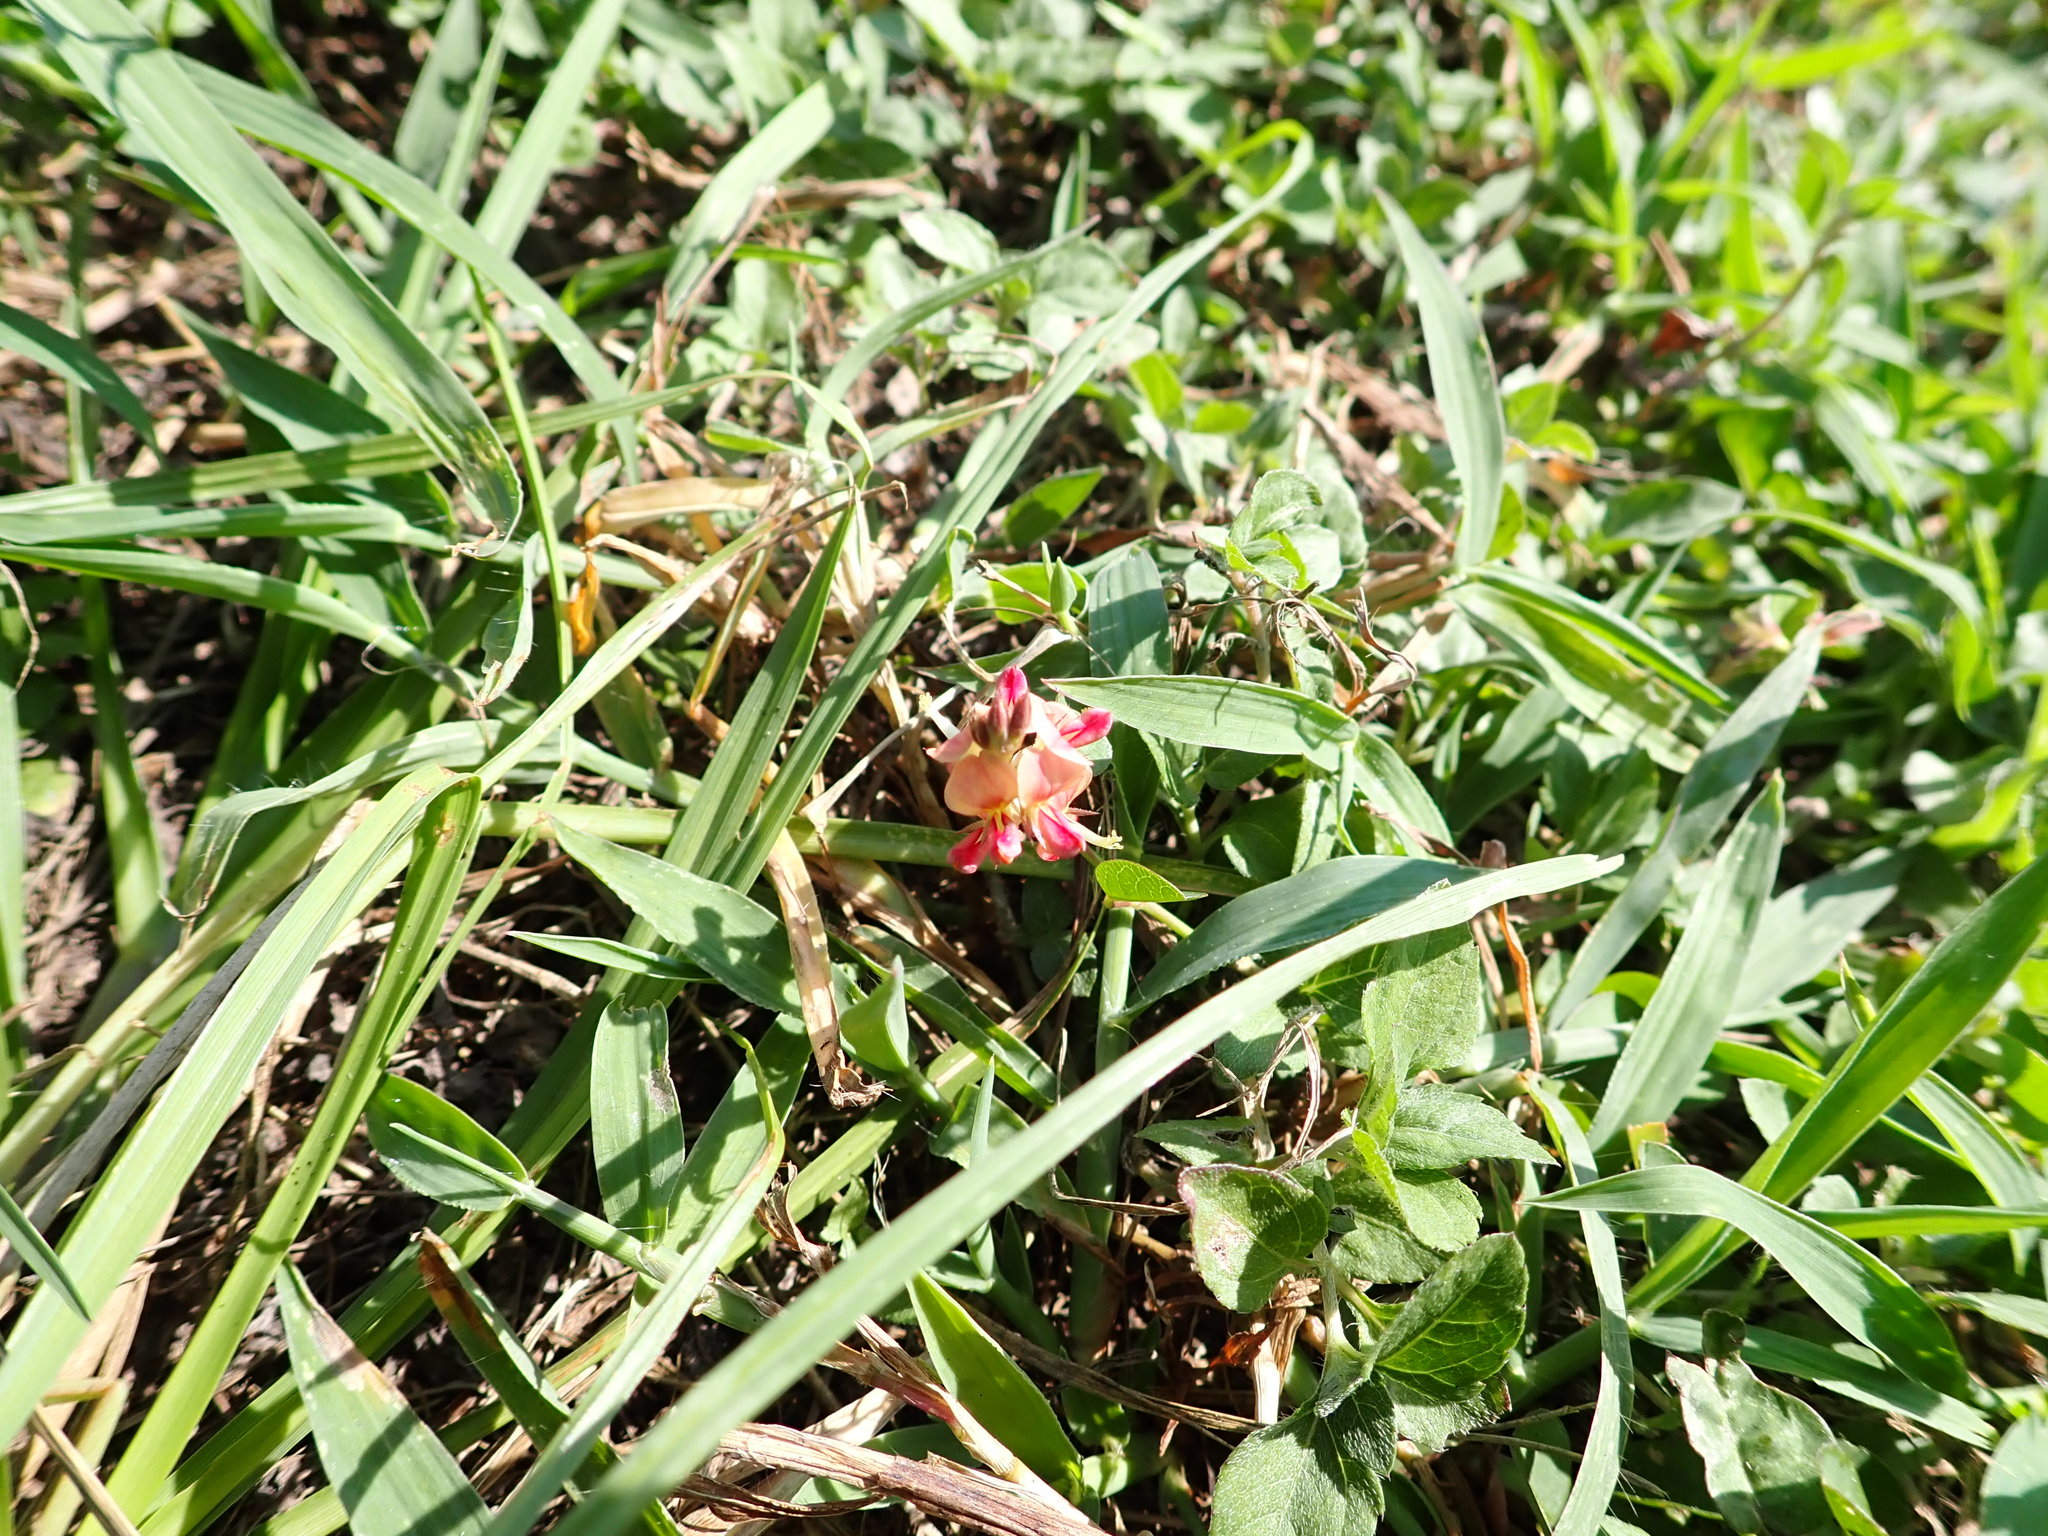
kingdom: Plantae
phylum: Tracheophyta
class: Magnoliopsida
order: Fabales
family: Fabaceae
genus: Alysicarpus
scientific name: Alysicarpus vaginalis
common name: White moneywort
